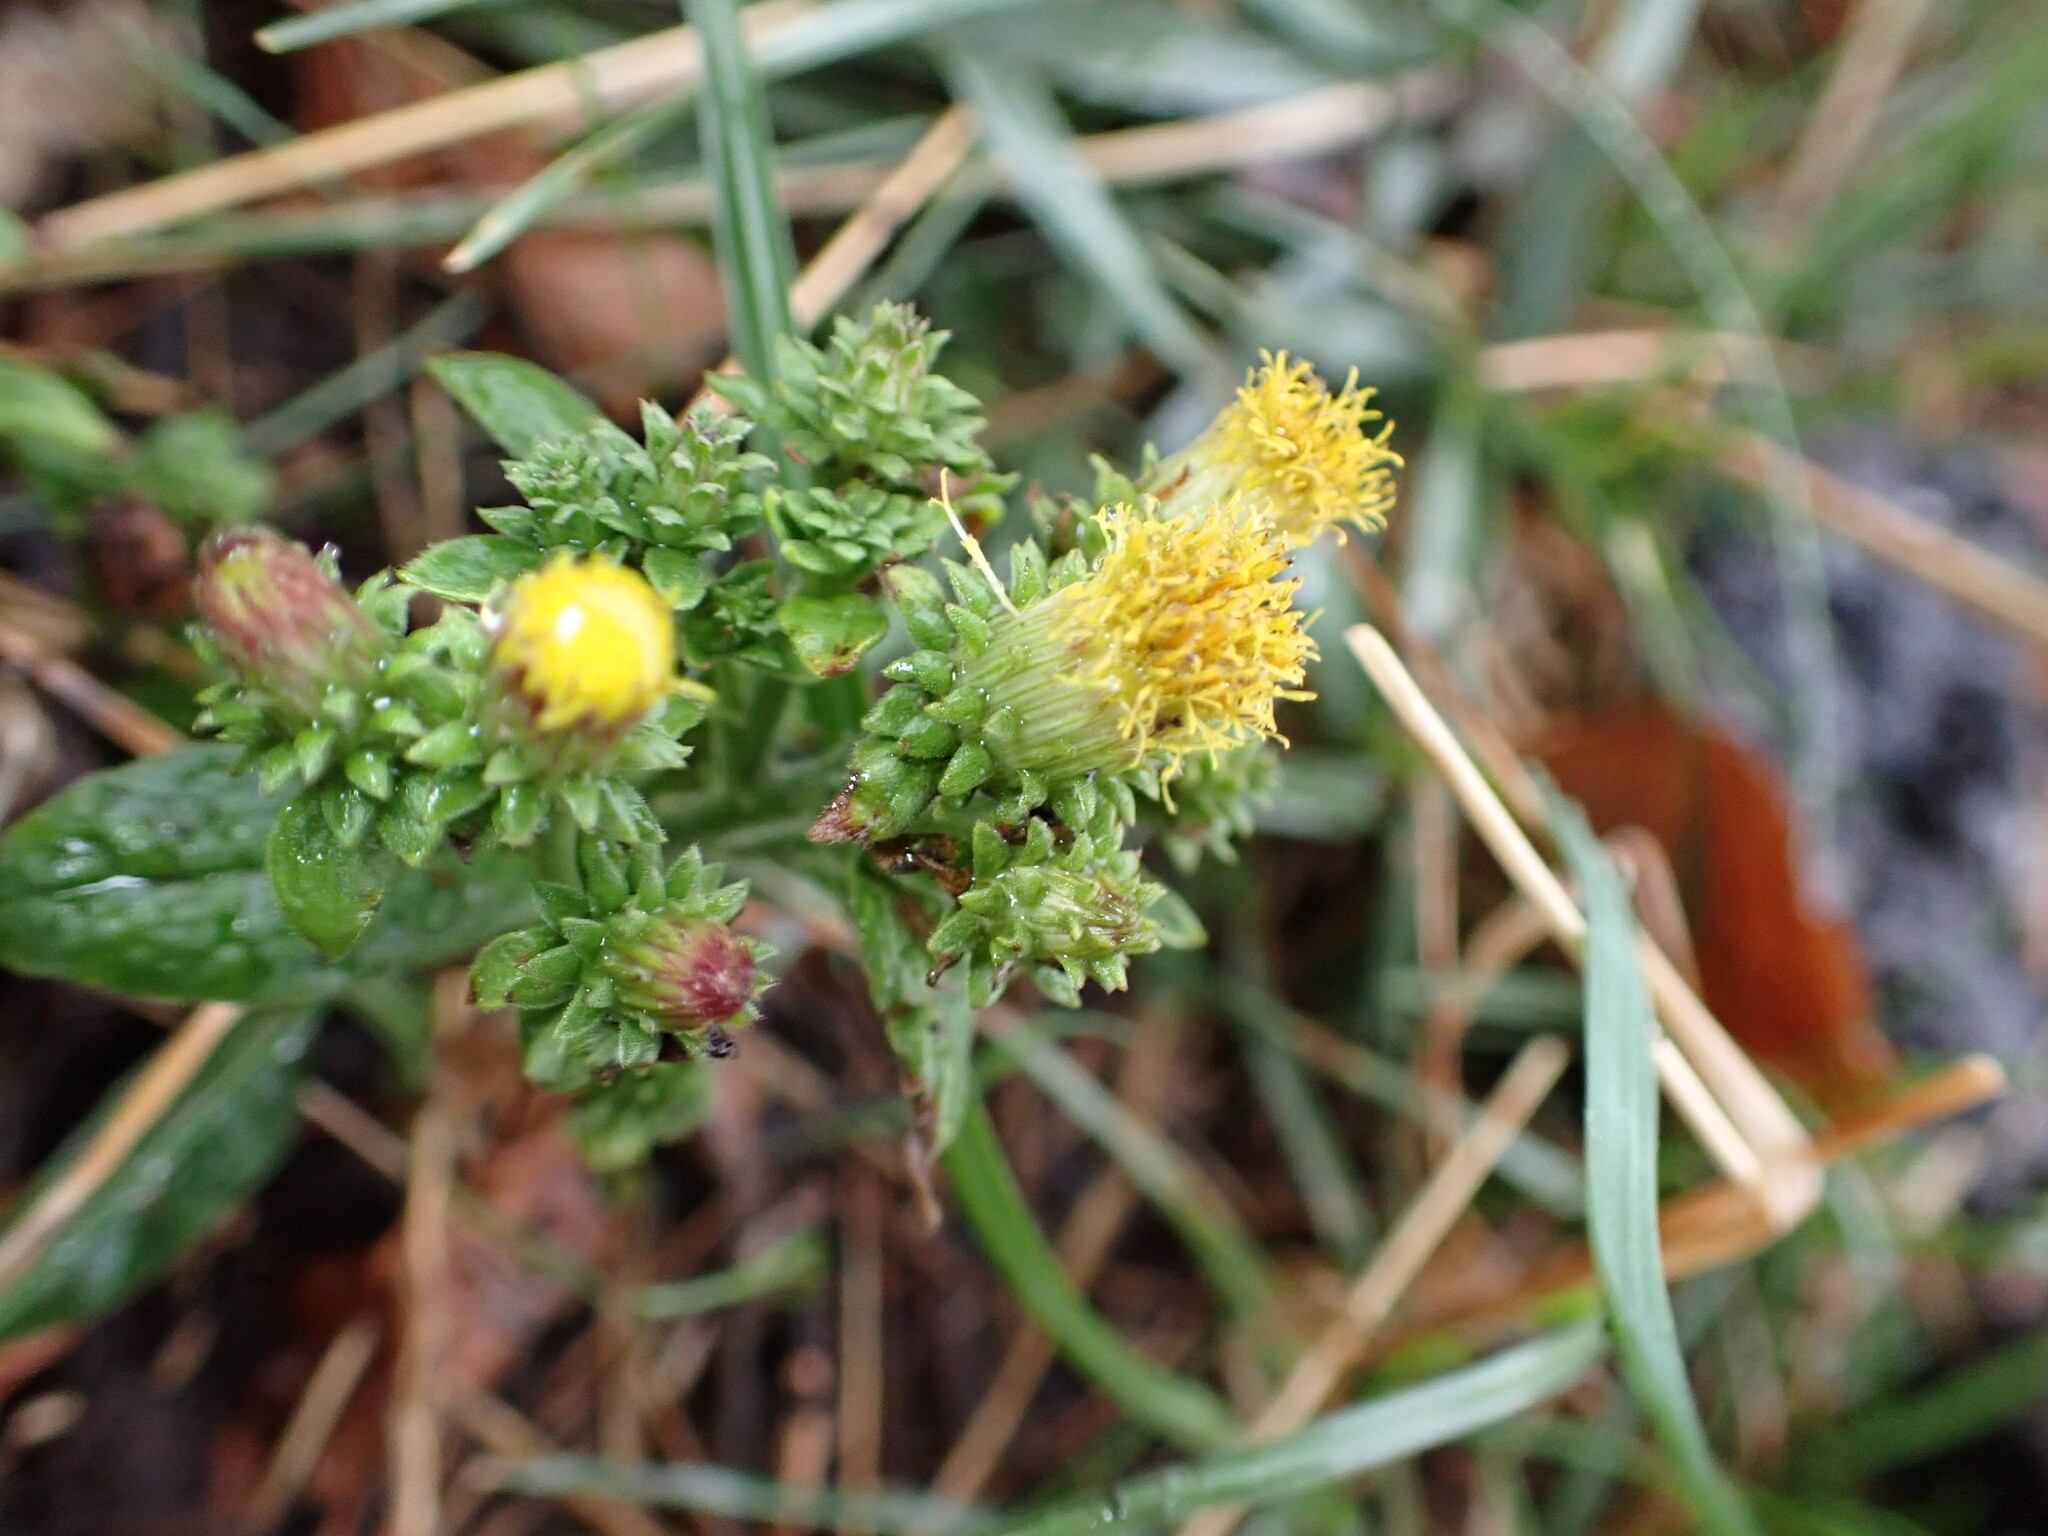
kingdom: Plantae
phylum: Tracheophyta
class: Magnoliopsida
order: Asterales
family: Asteraceae
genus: Pentanema
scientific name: Pentanema squarrosum
